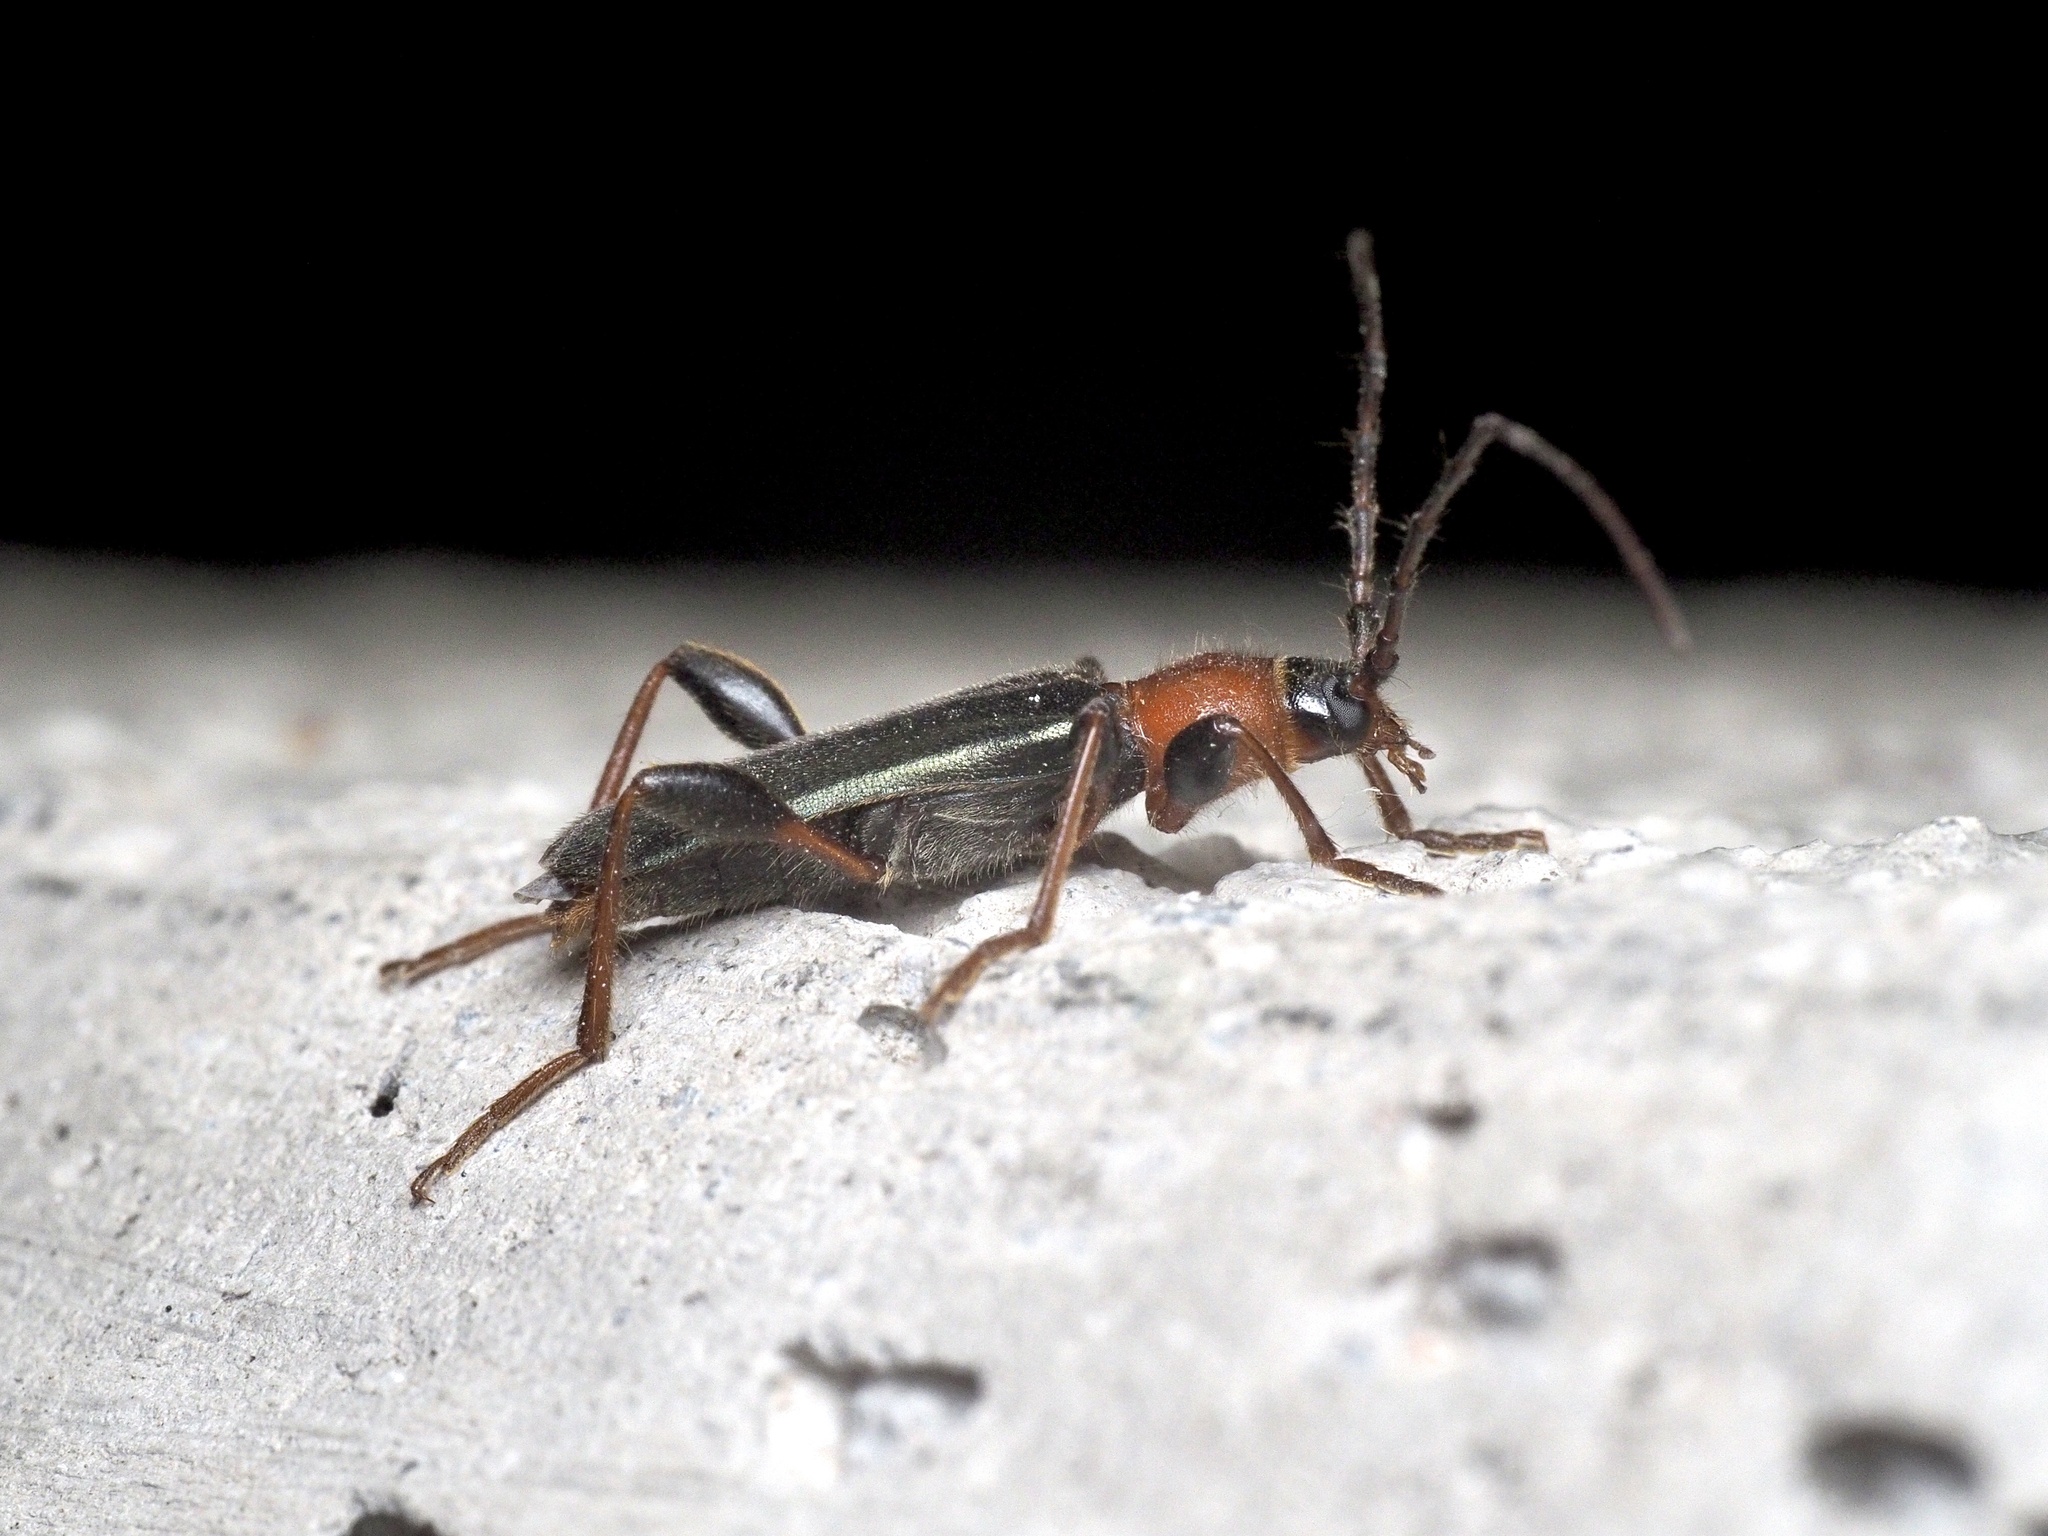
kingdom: Animalia
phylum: Arthropoda
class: Insecta
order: Coleoptera
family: Cerambycidae
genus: Phymatodes
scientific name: Phymatodes testaceus
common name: Long-horned beetle
